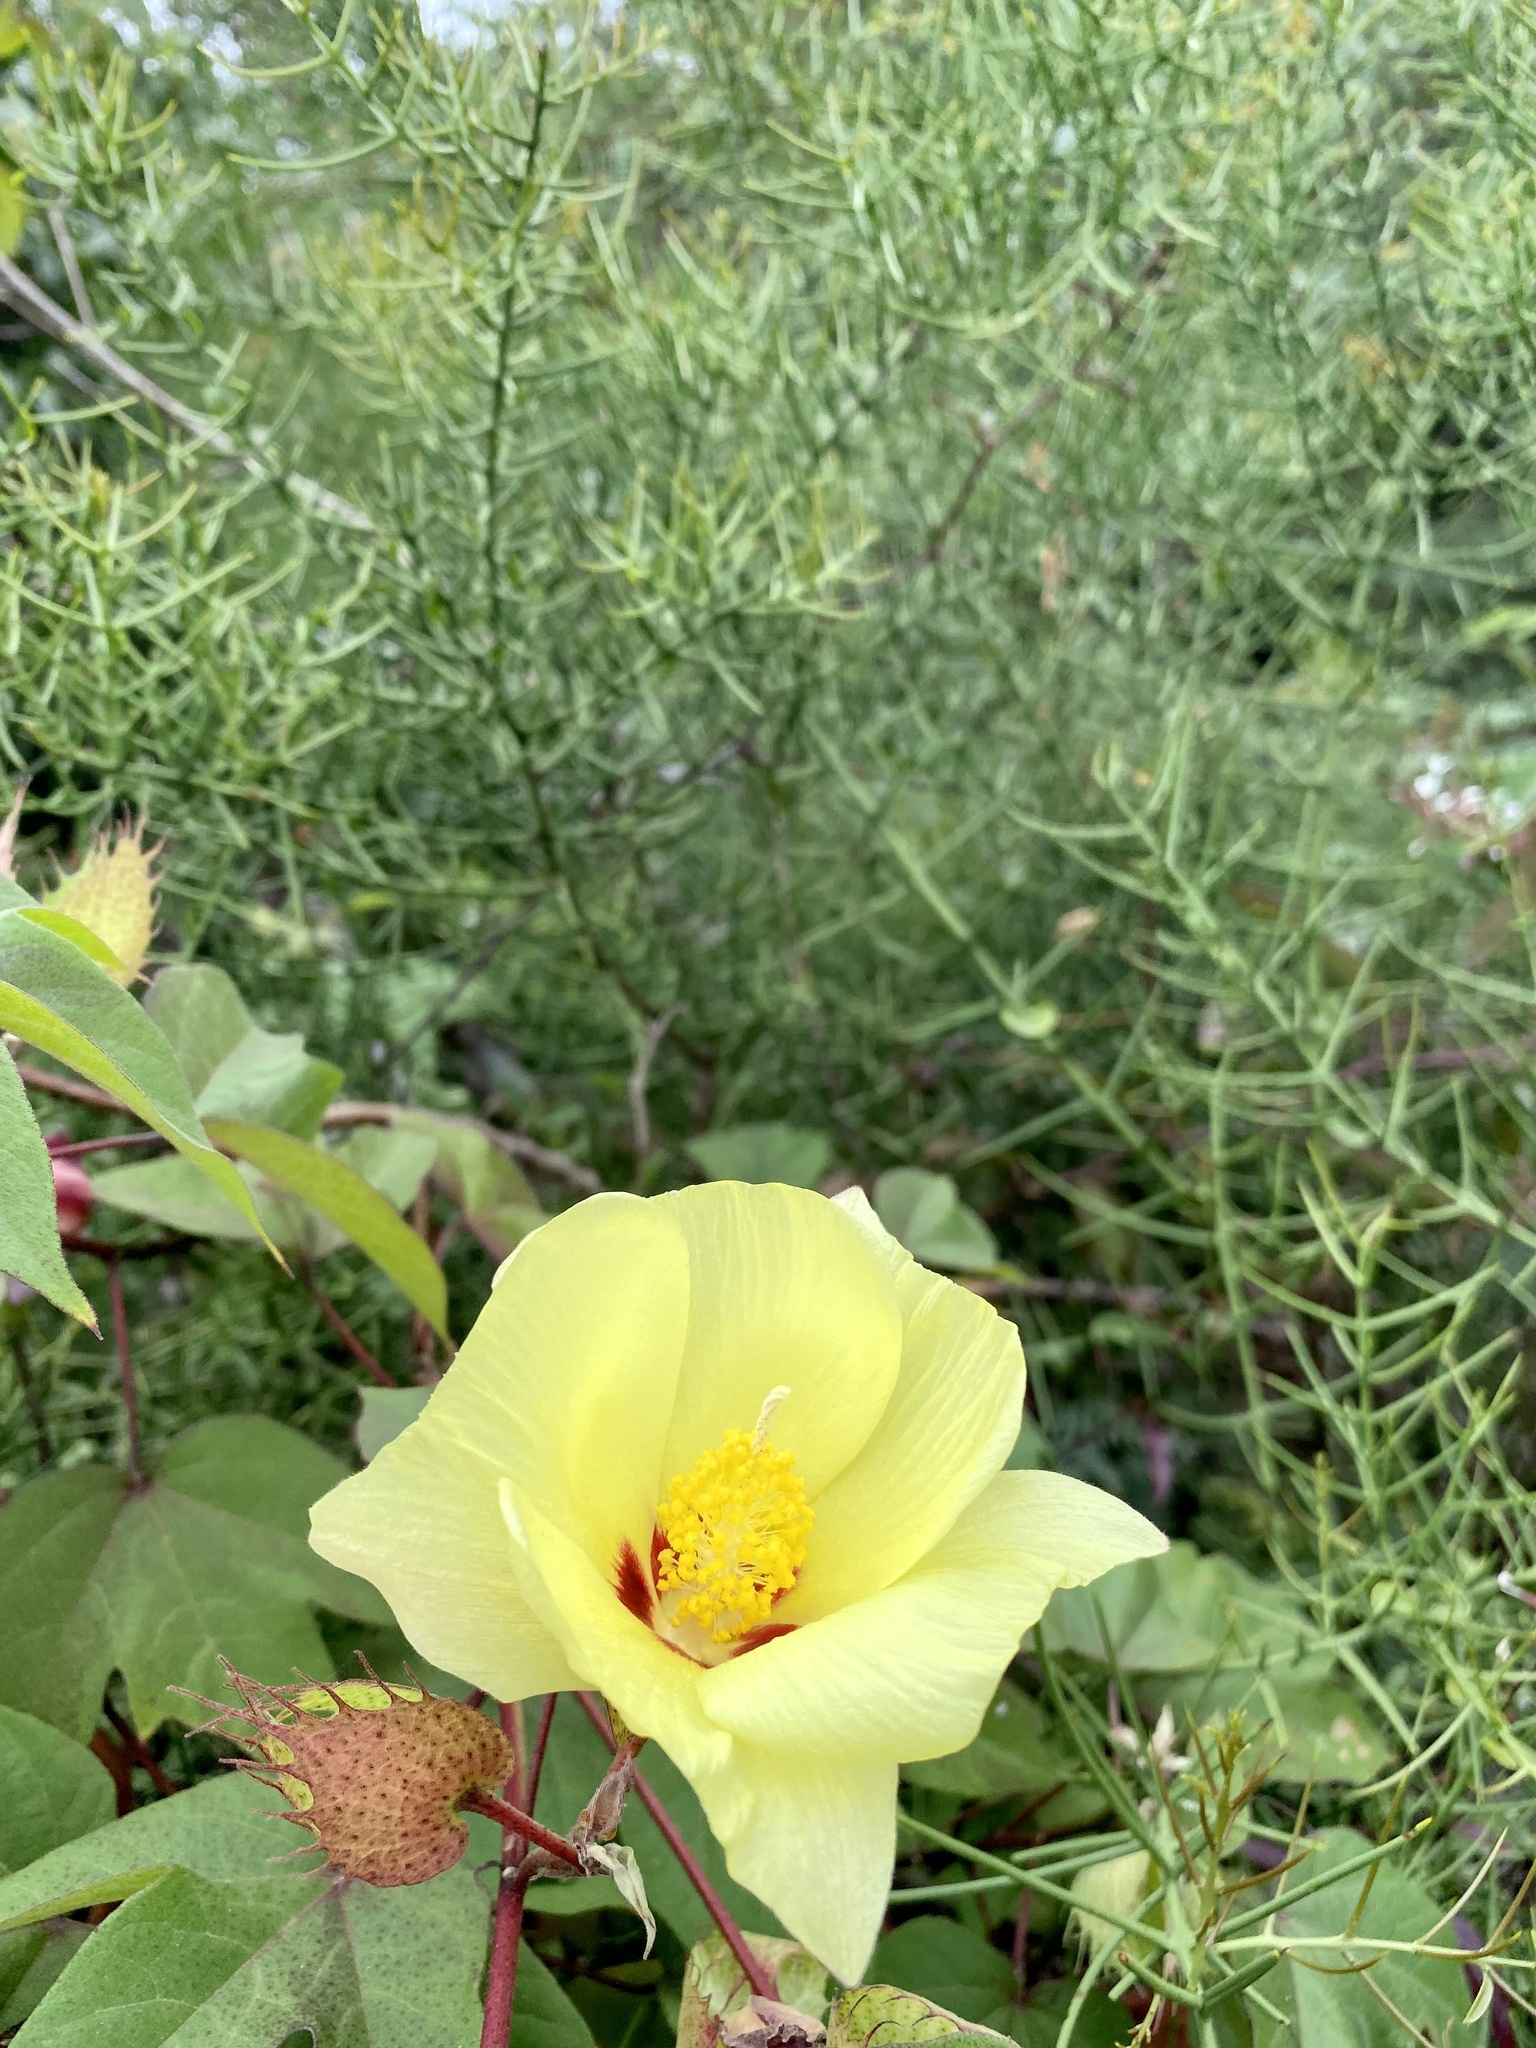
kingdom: Plantae
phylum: Tracheophyta
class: Magnoliopsida
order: Malvales
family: Malvaceae
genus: Gossypium
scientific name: Gossypium darwinii
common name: Darwin's cotton
